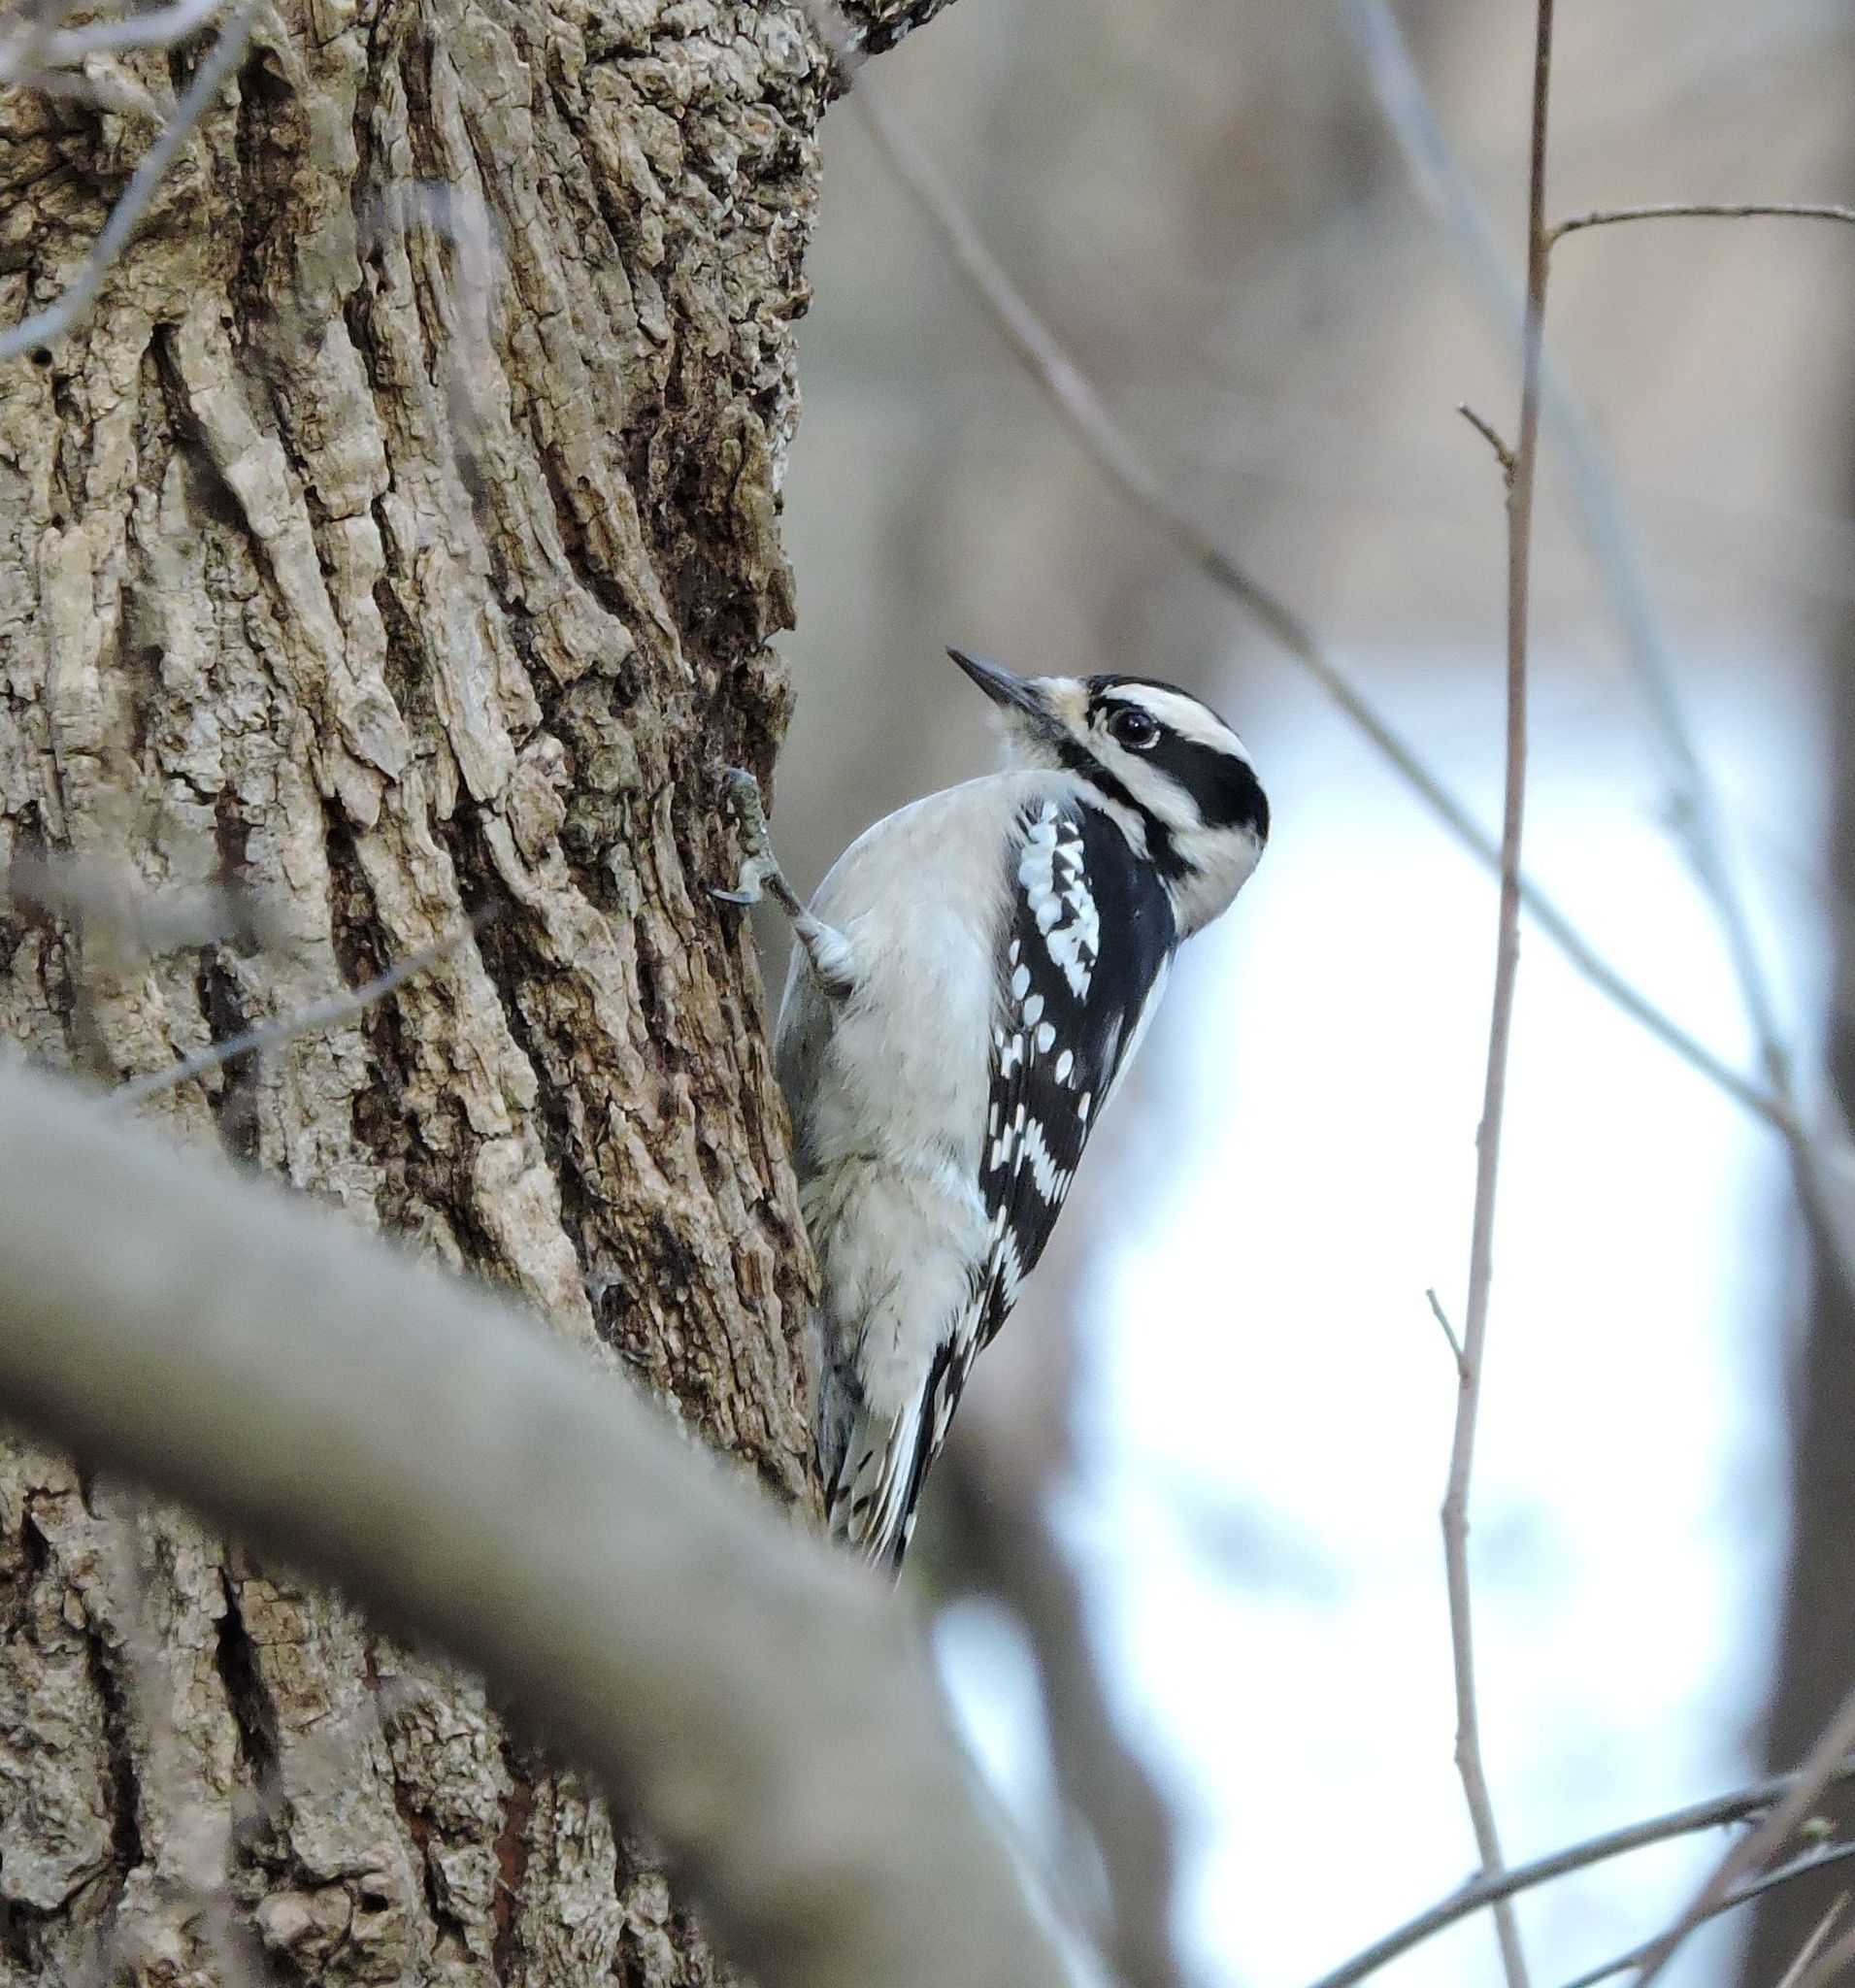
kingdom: Animalia
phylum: Chordata
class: Aves
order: Piciformes
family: Picidae
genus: Dryobates
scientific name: Dryobates pubescens
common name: Downy woodpecker
